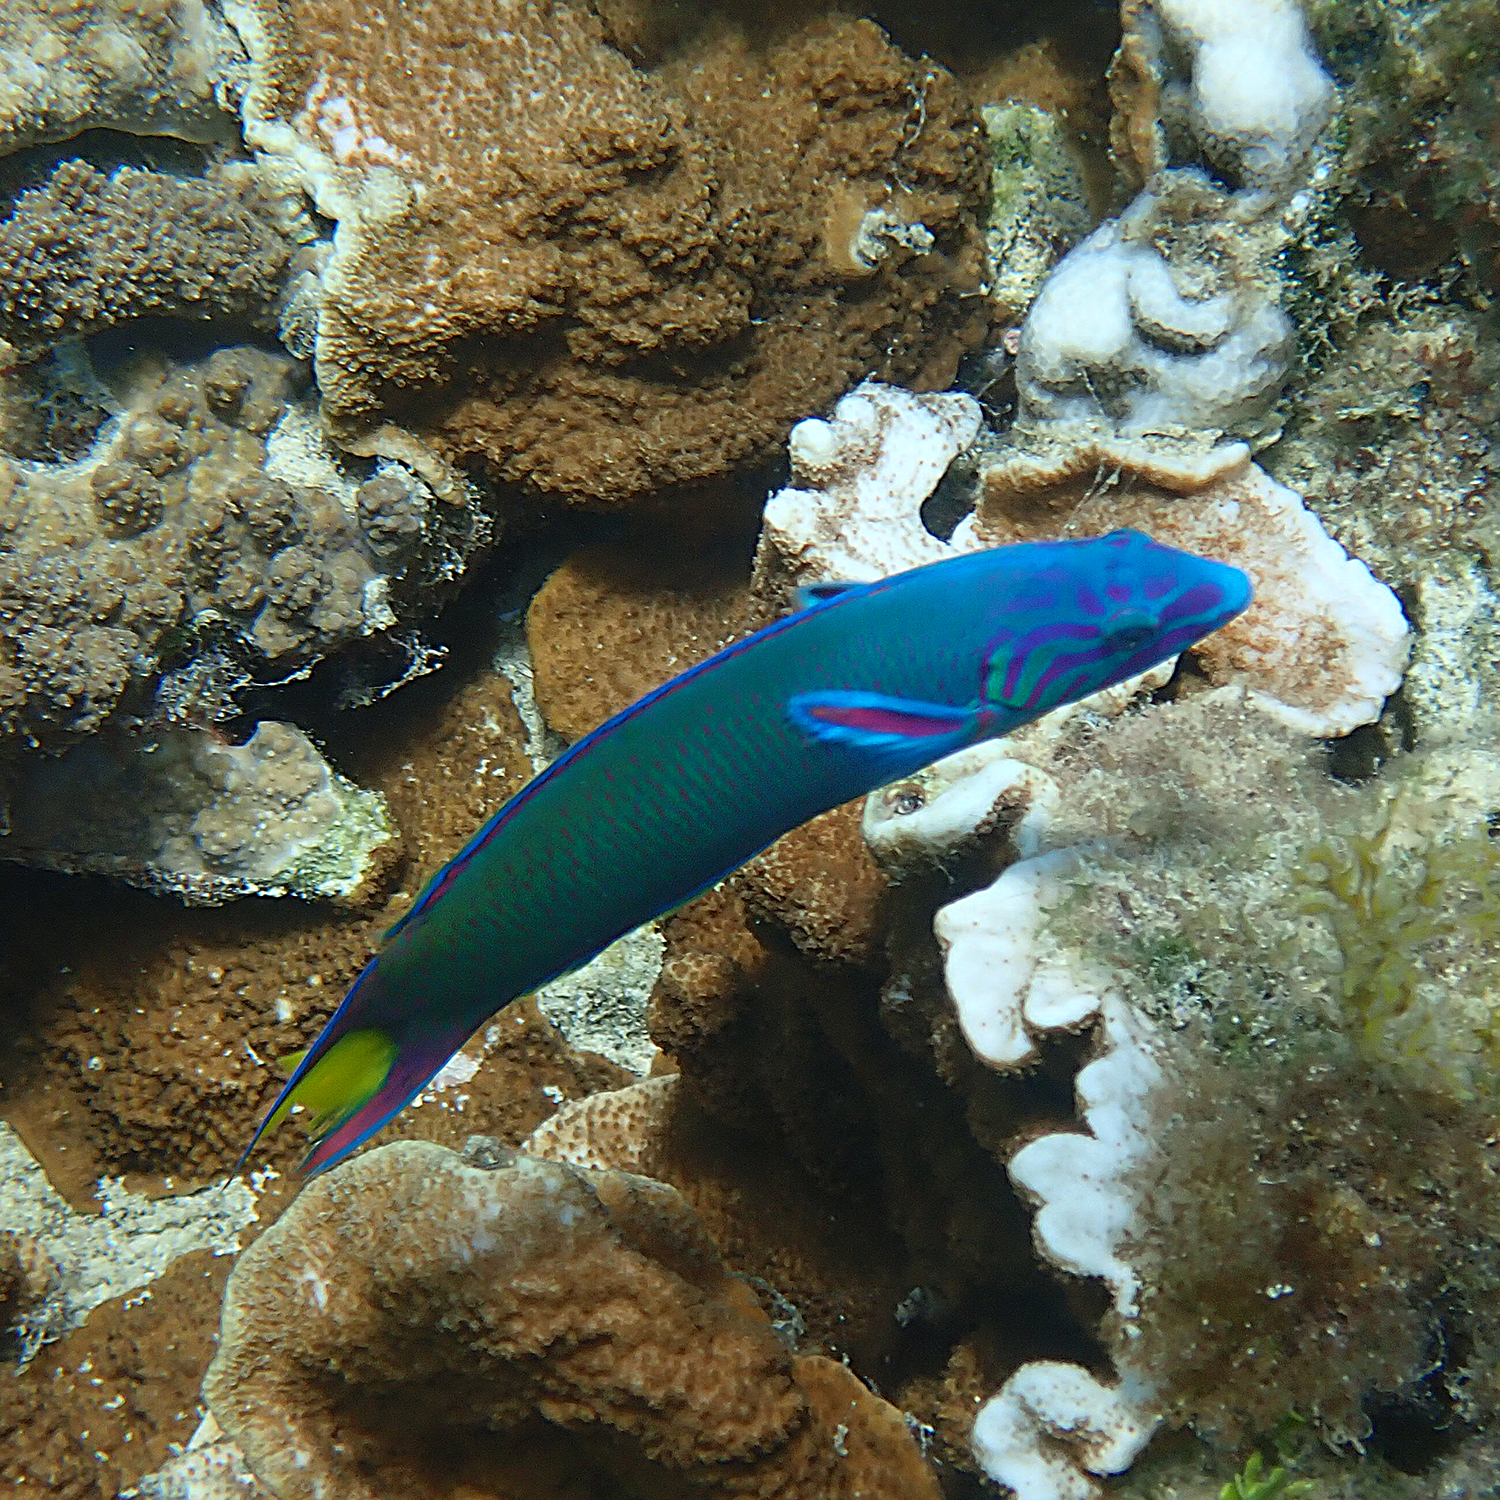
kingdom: Animalia
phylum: Chordata
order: Perciformes
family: Labridae
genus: Thalassoma
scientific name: Thalassoma lunare
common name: Blue wrasse
